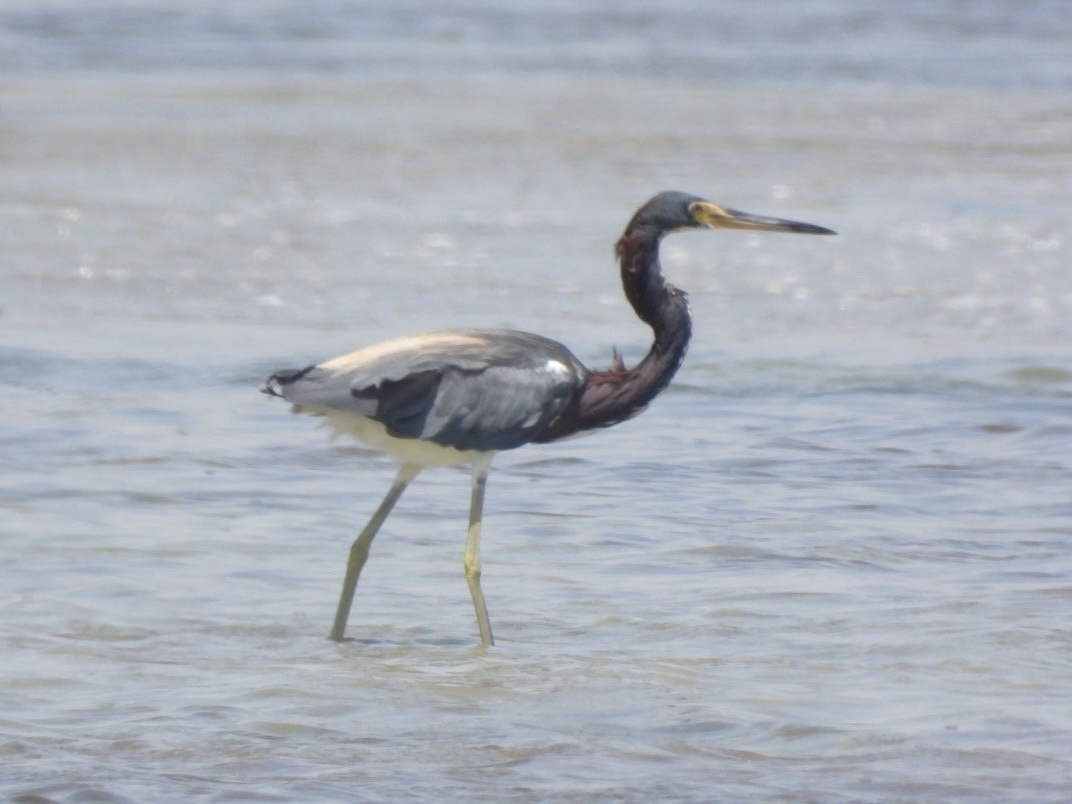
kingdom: Animalia
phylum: Chordata
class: Aves
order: Pelecaniformes
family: Ardeidae
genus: Egretta
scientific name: Egretta tricolor
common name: Tricolored heron
